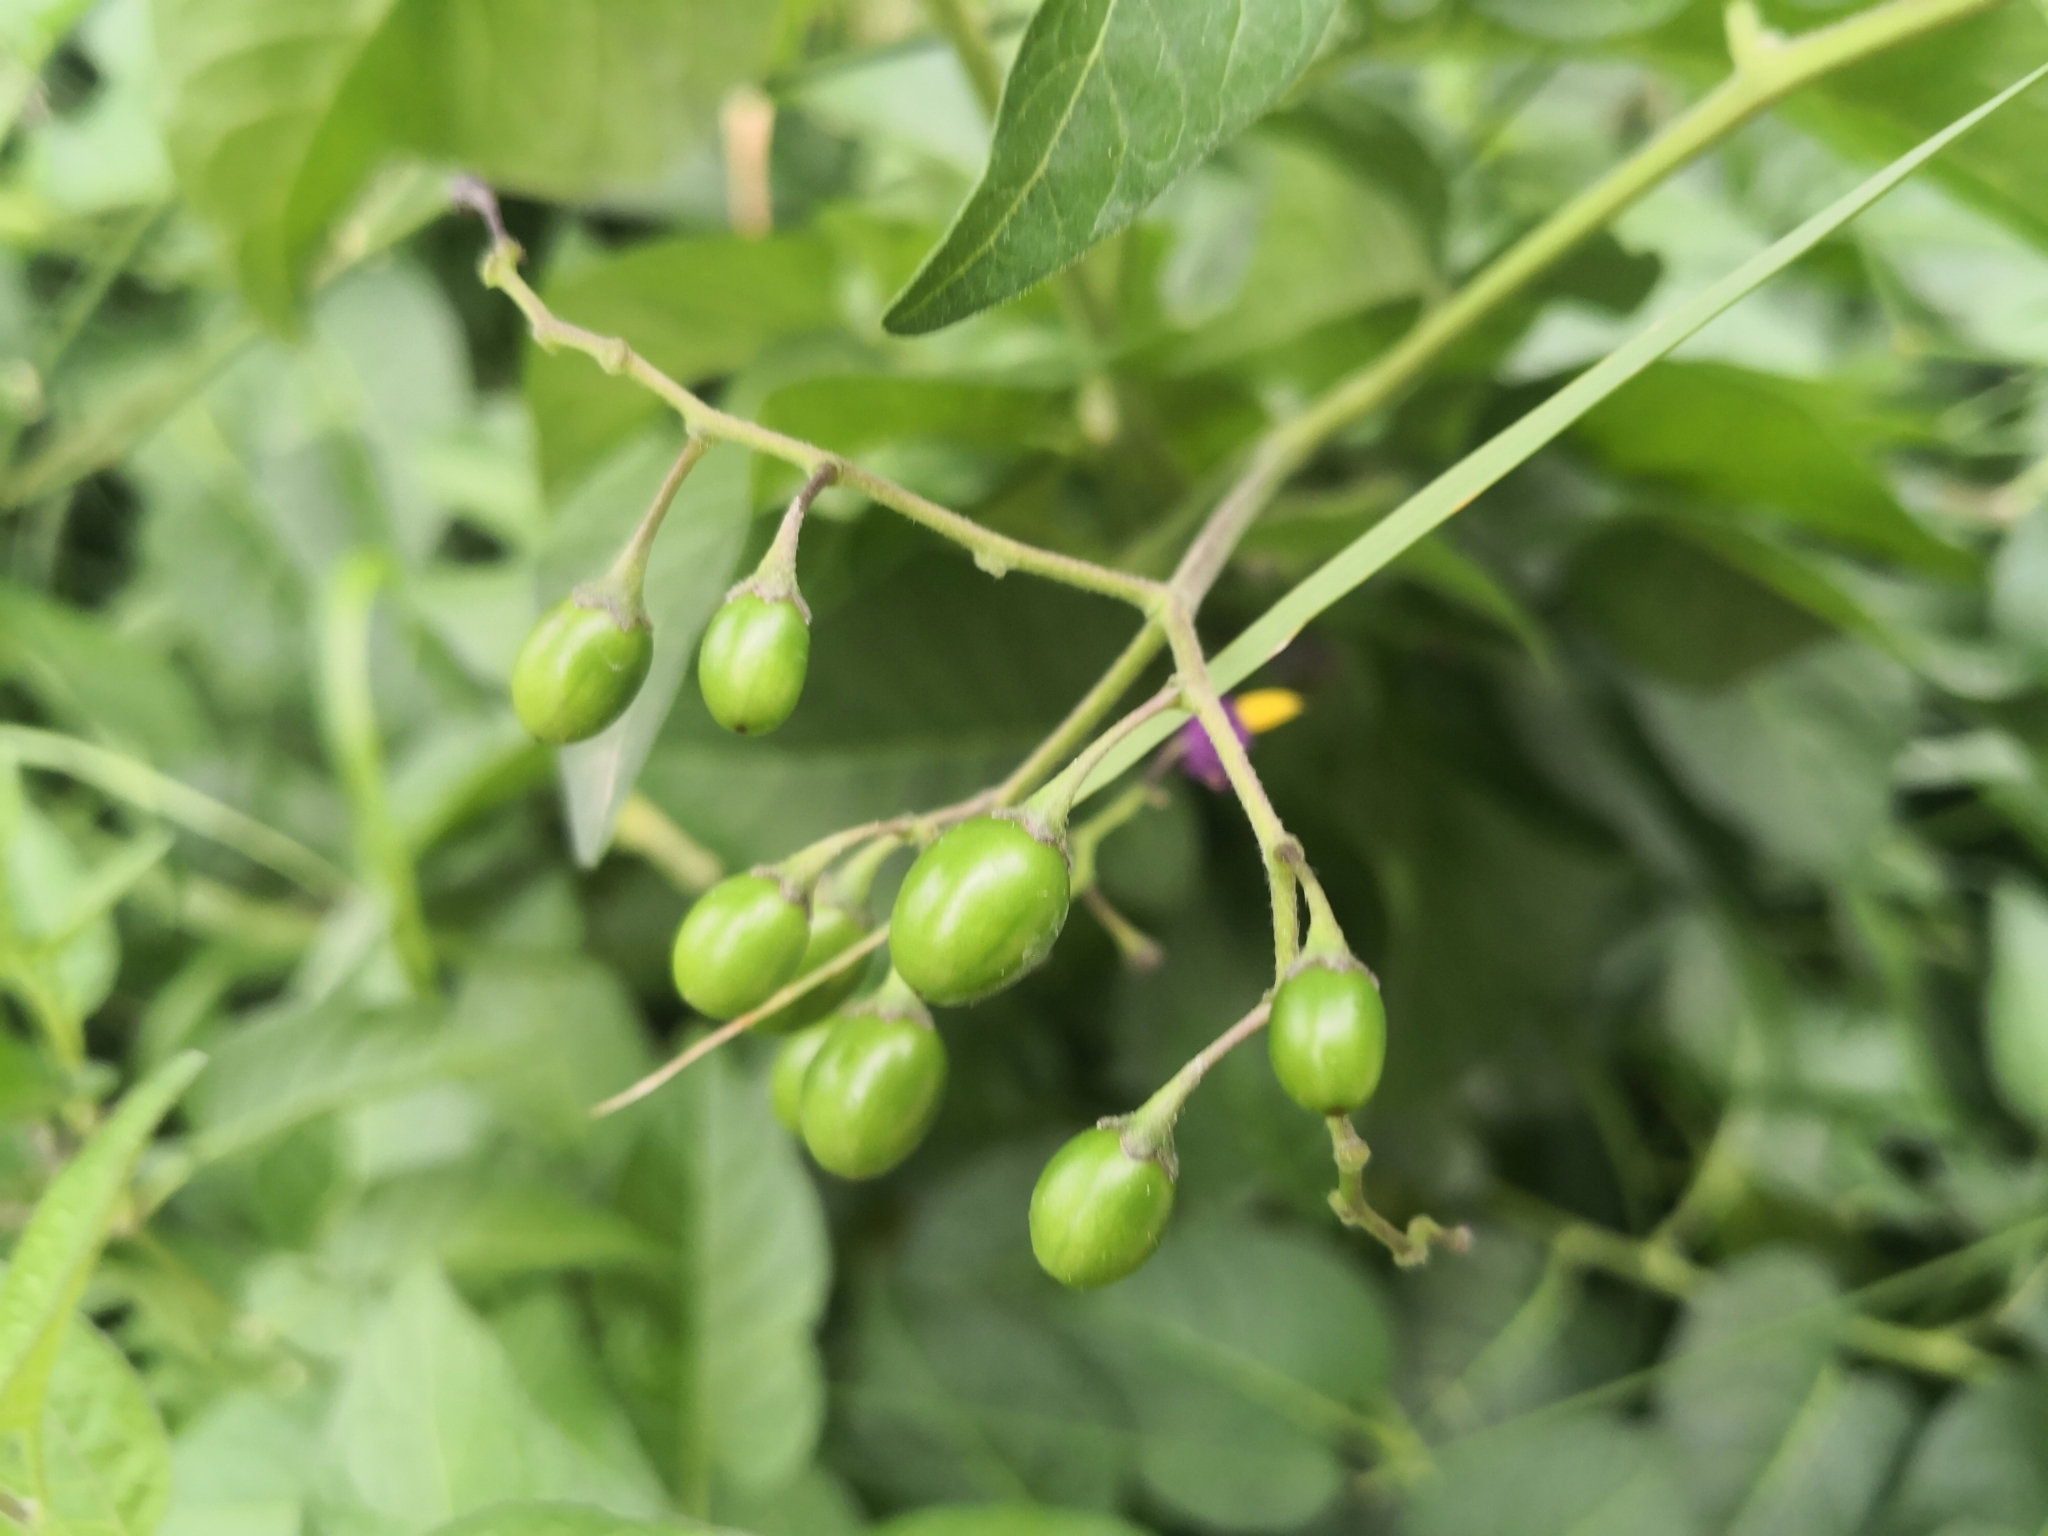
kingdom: Plantae
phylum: Tracheophyta
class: Magnoliopsida
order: Solanales
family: Solanaceae
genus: Solanum
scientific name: Solanum dulcamara
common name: Climbing nightshade
